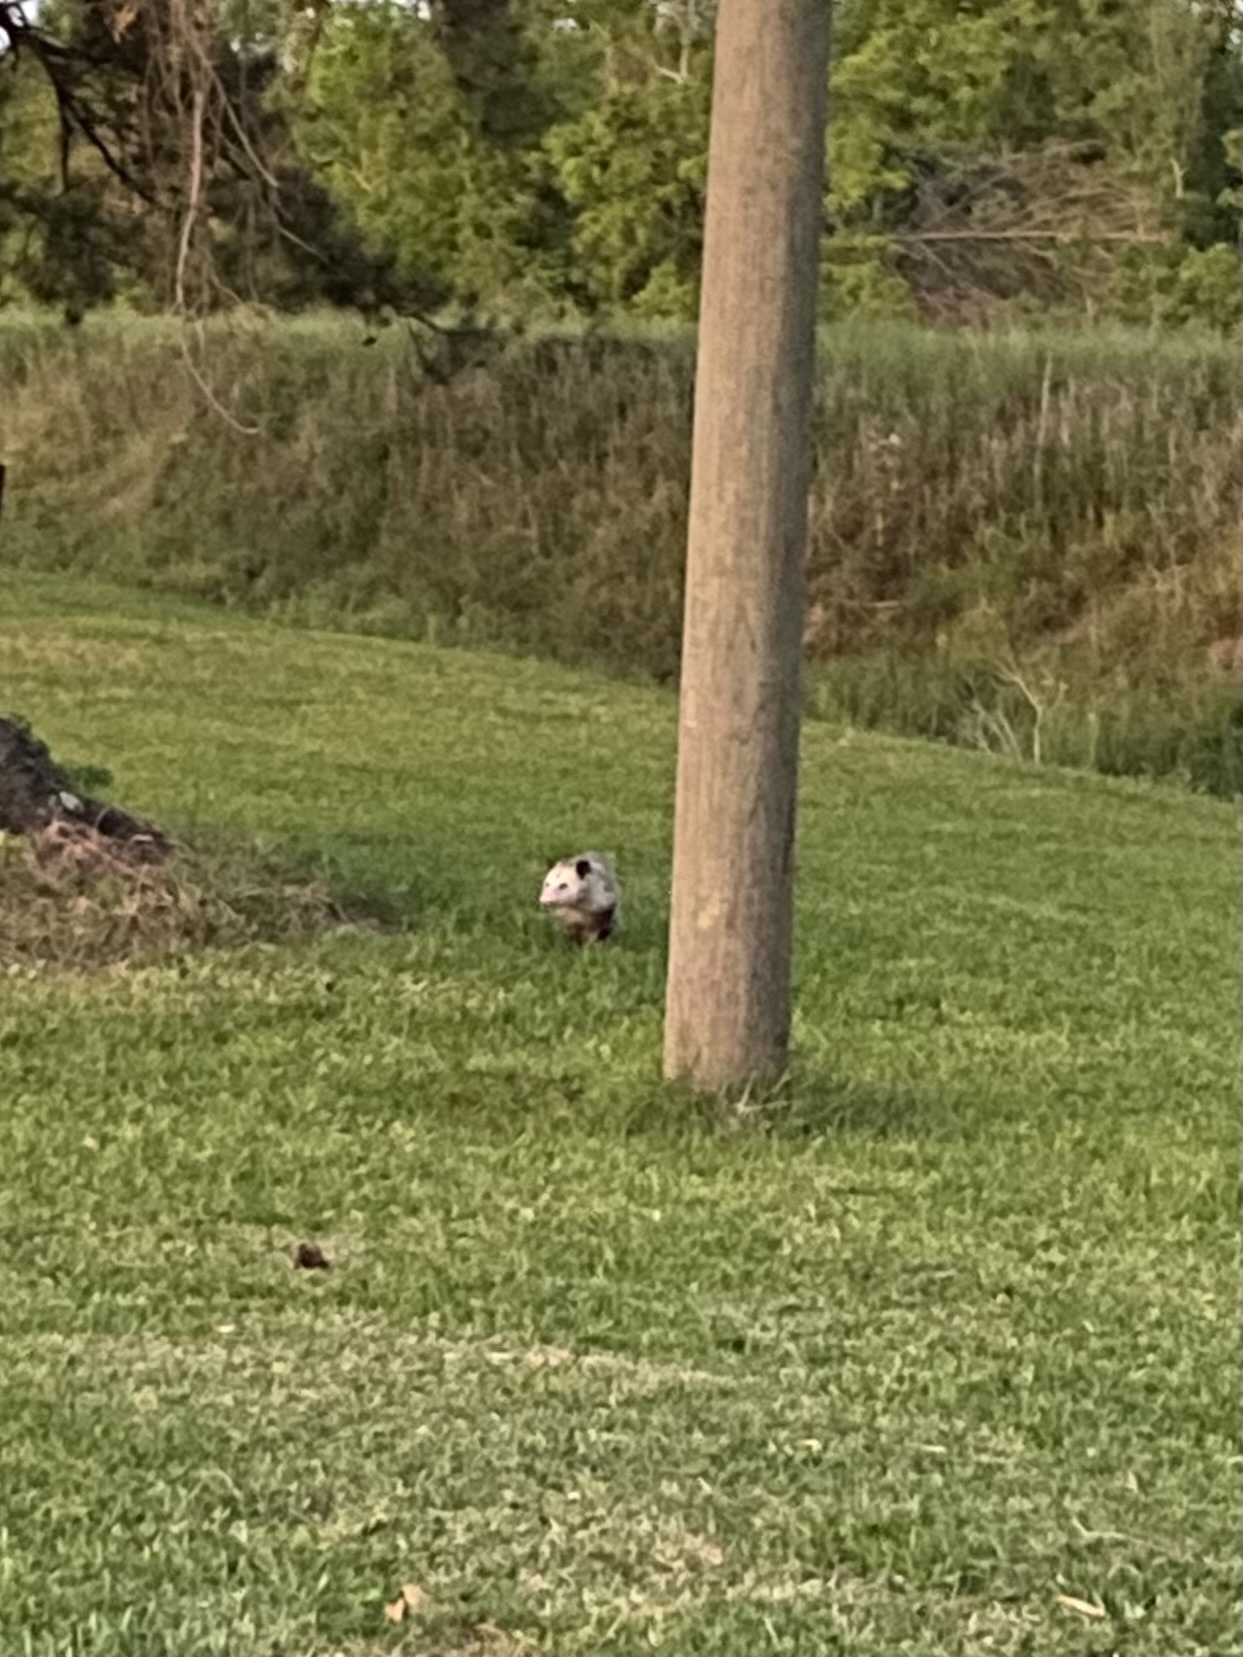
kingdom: Animalia
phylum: Chordata
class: Mammalia
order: Didelphimorphia
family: Didelphidae
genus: Didelphis
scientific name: Didelphis virginiana
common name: Virginia opossum
